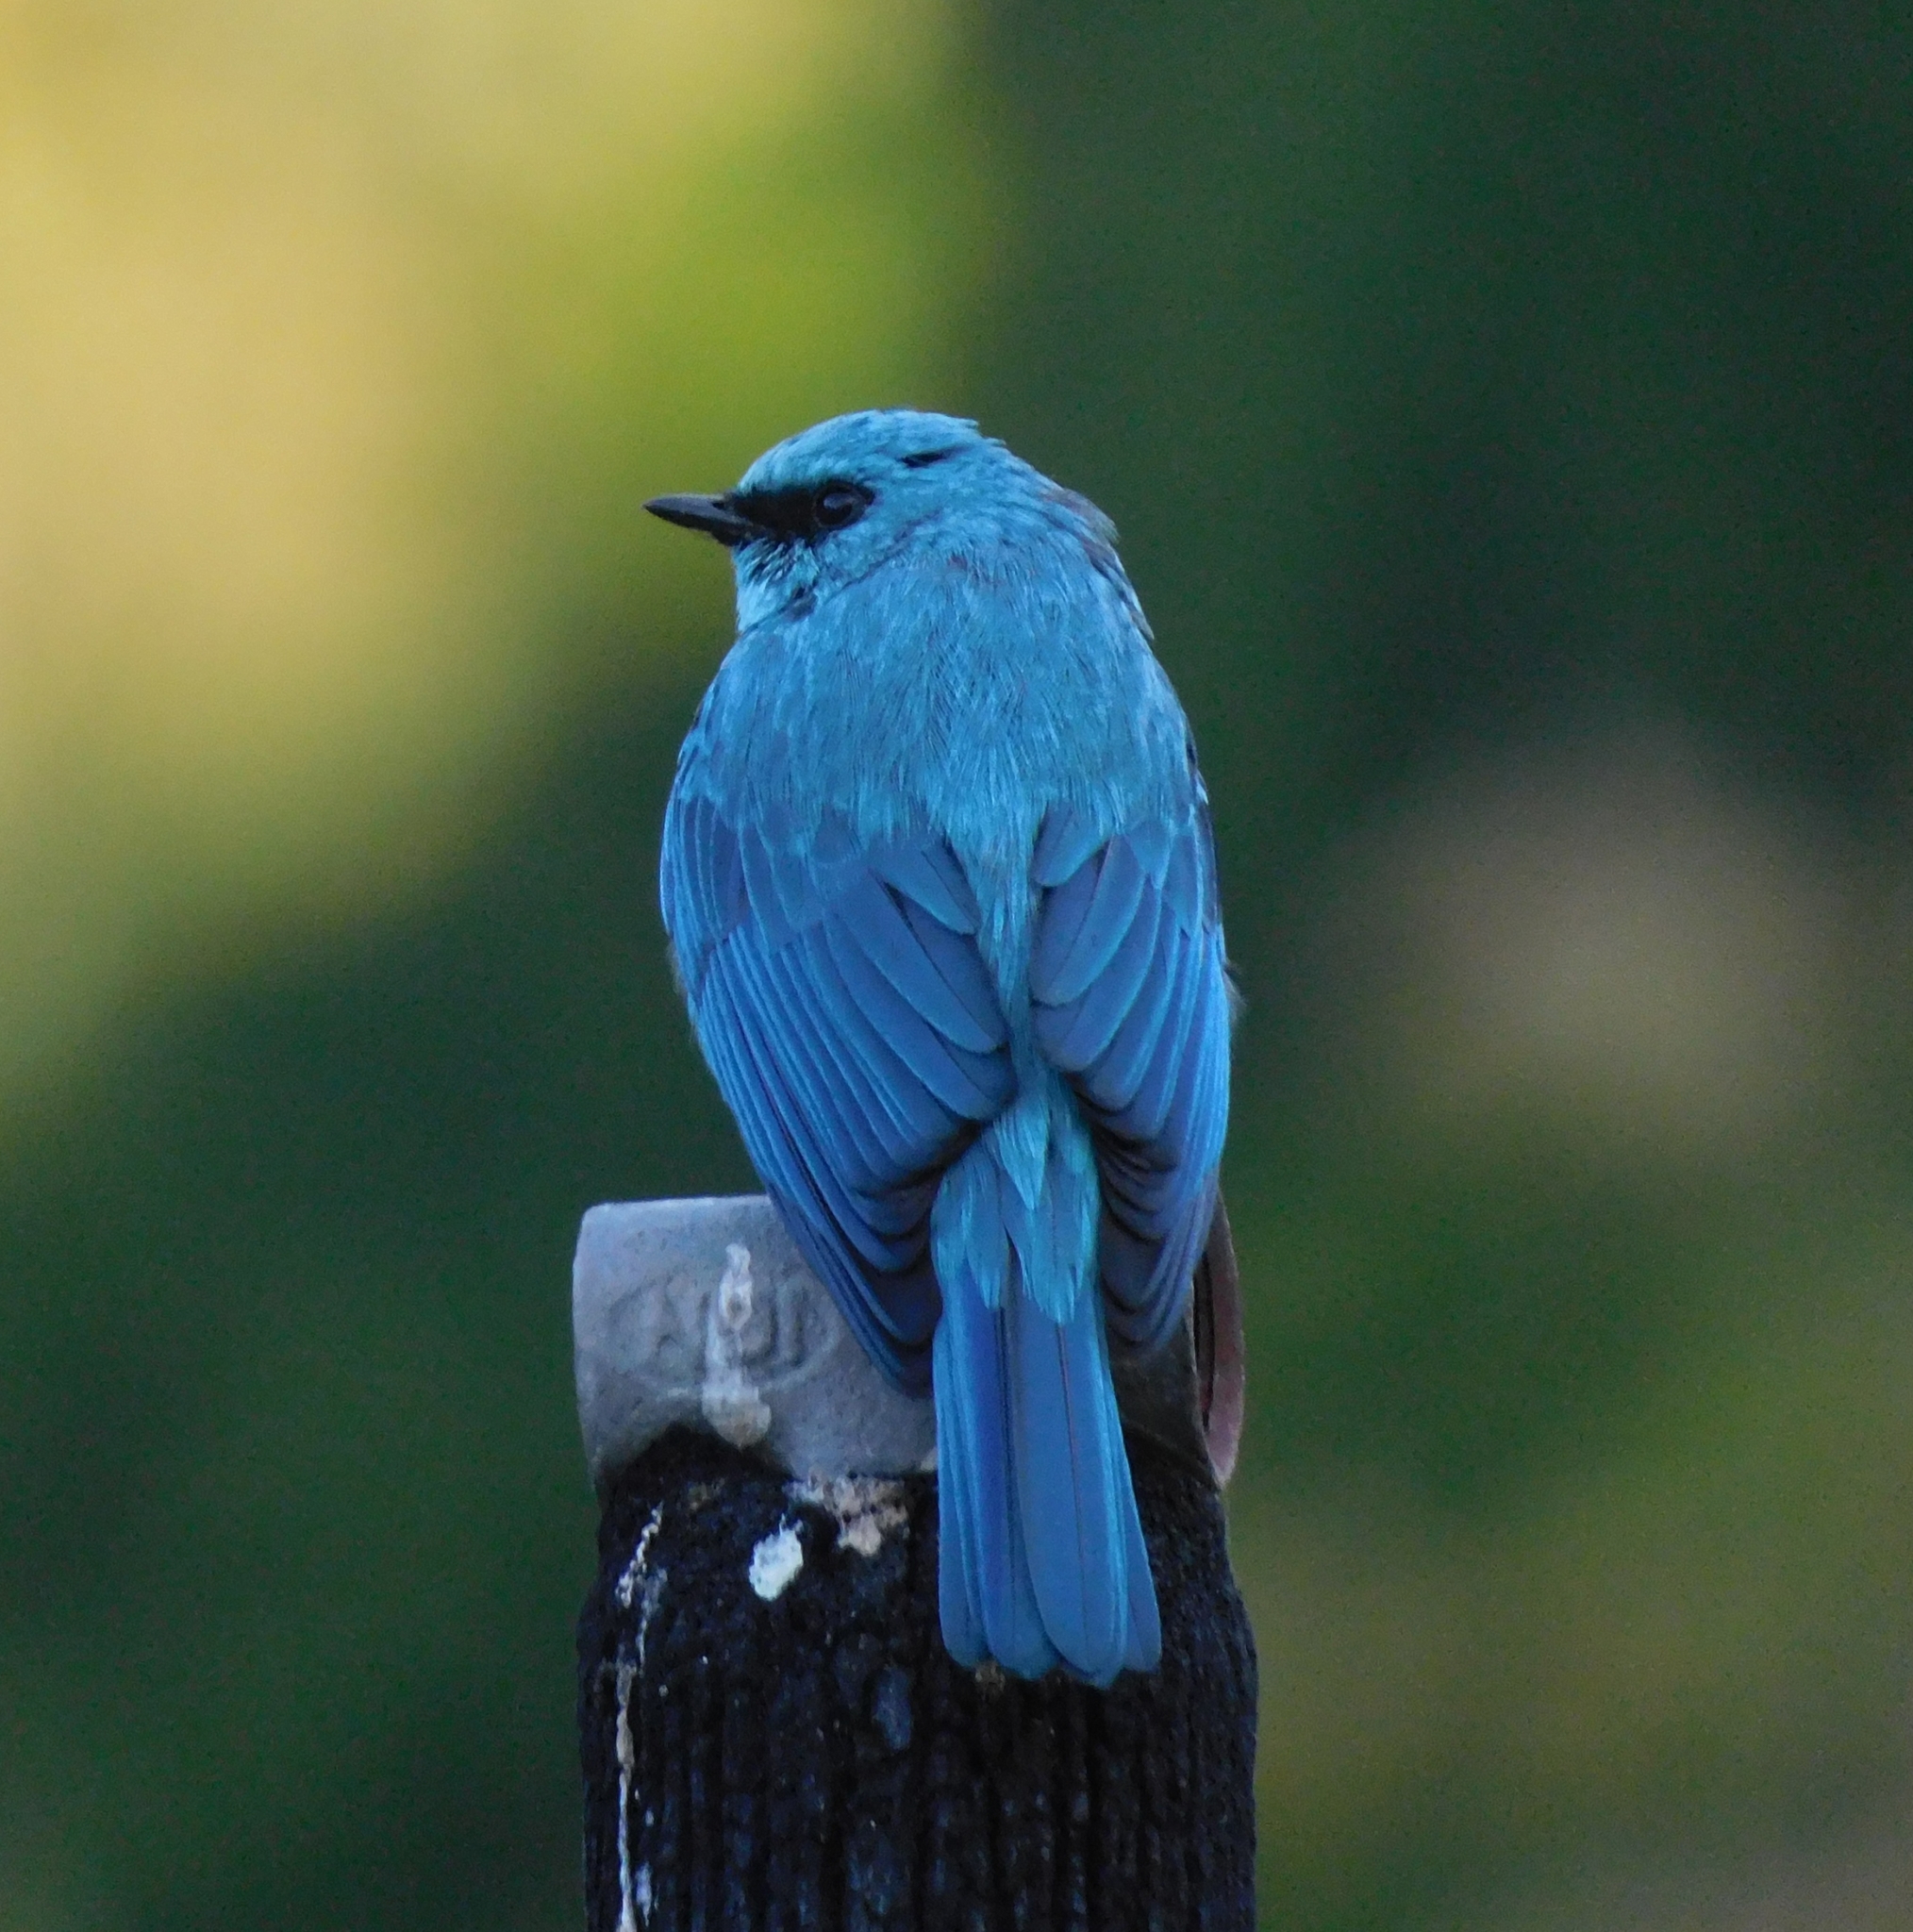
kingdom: Animalia
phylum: Chordata
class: Aves
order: Passeriformes
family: Muscicapidae
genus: Eumyias
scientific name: Eumyias thalassinus
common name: Verditer flycatcher
